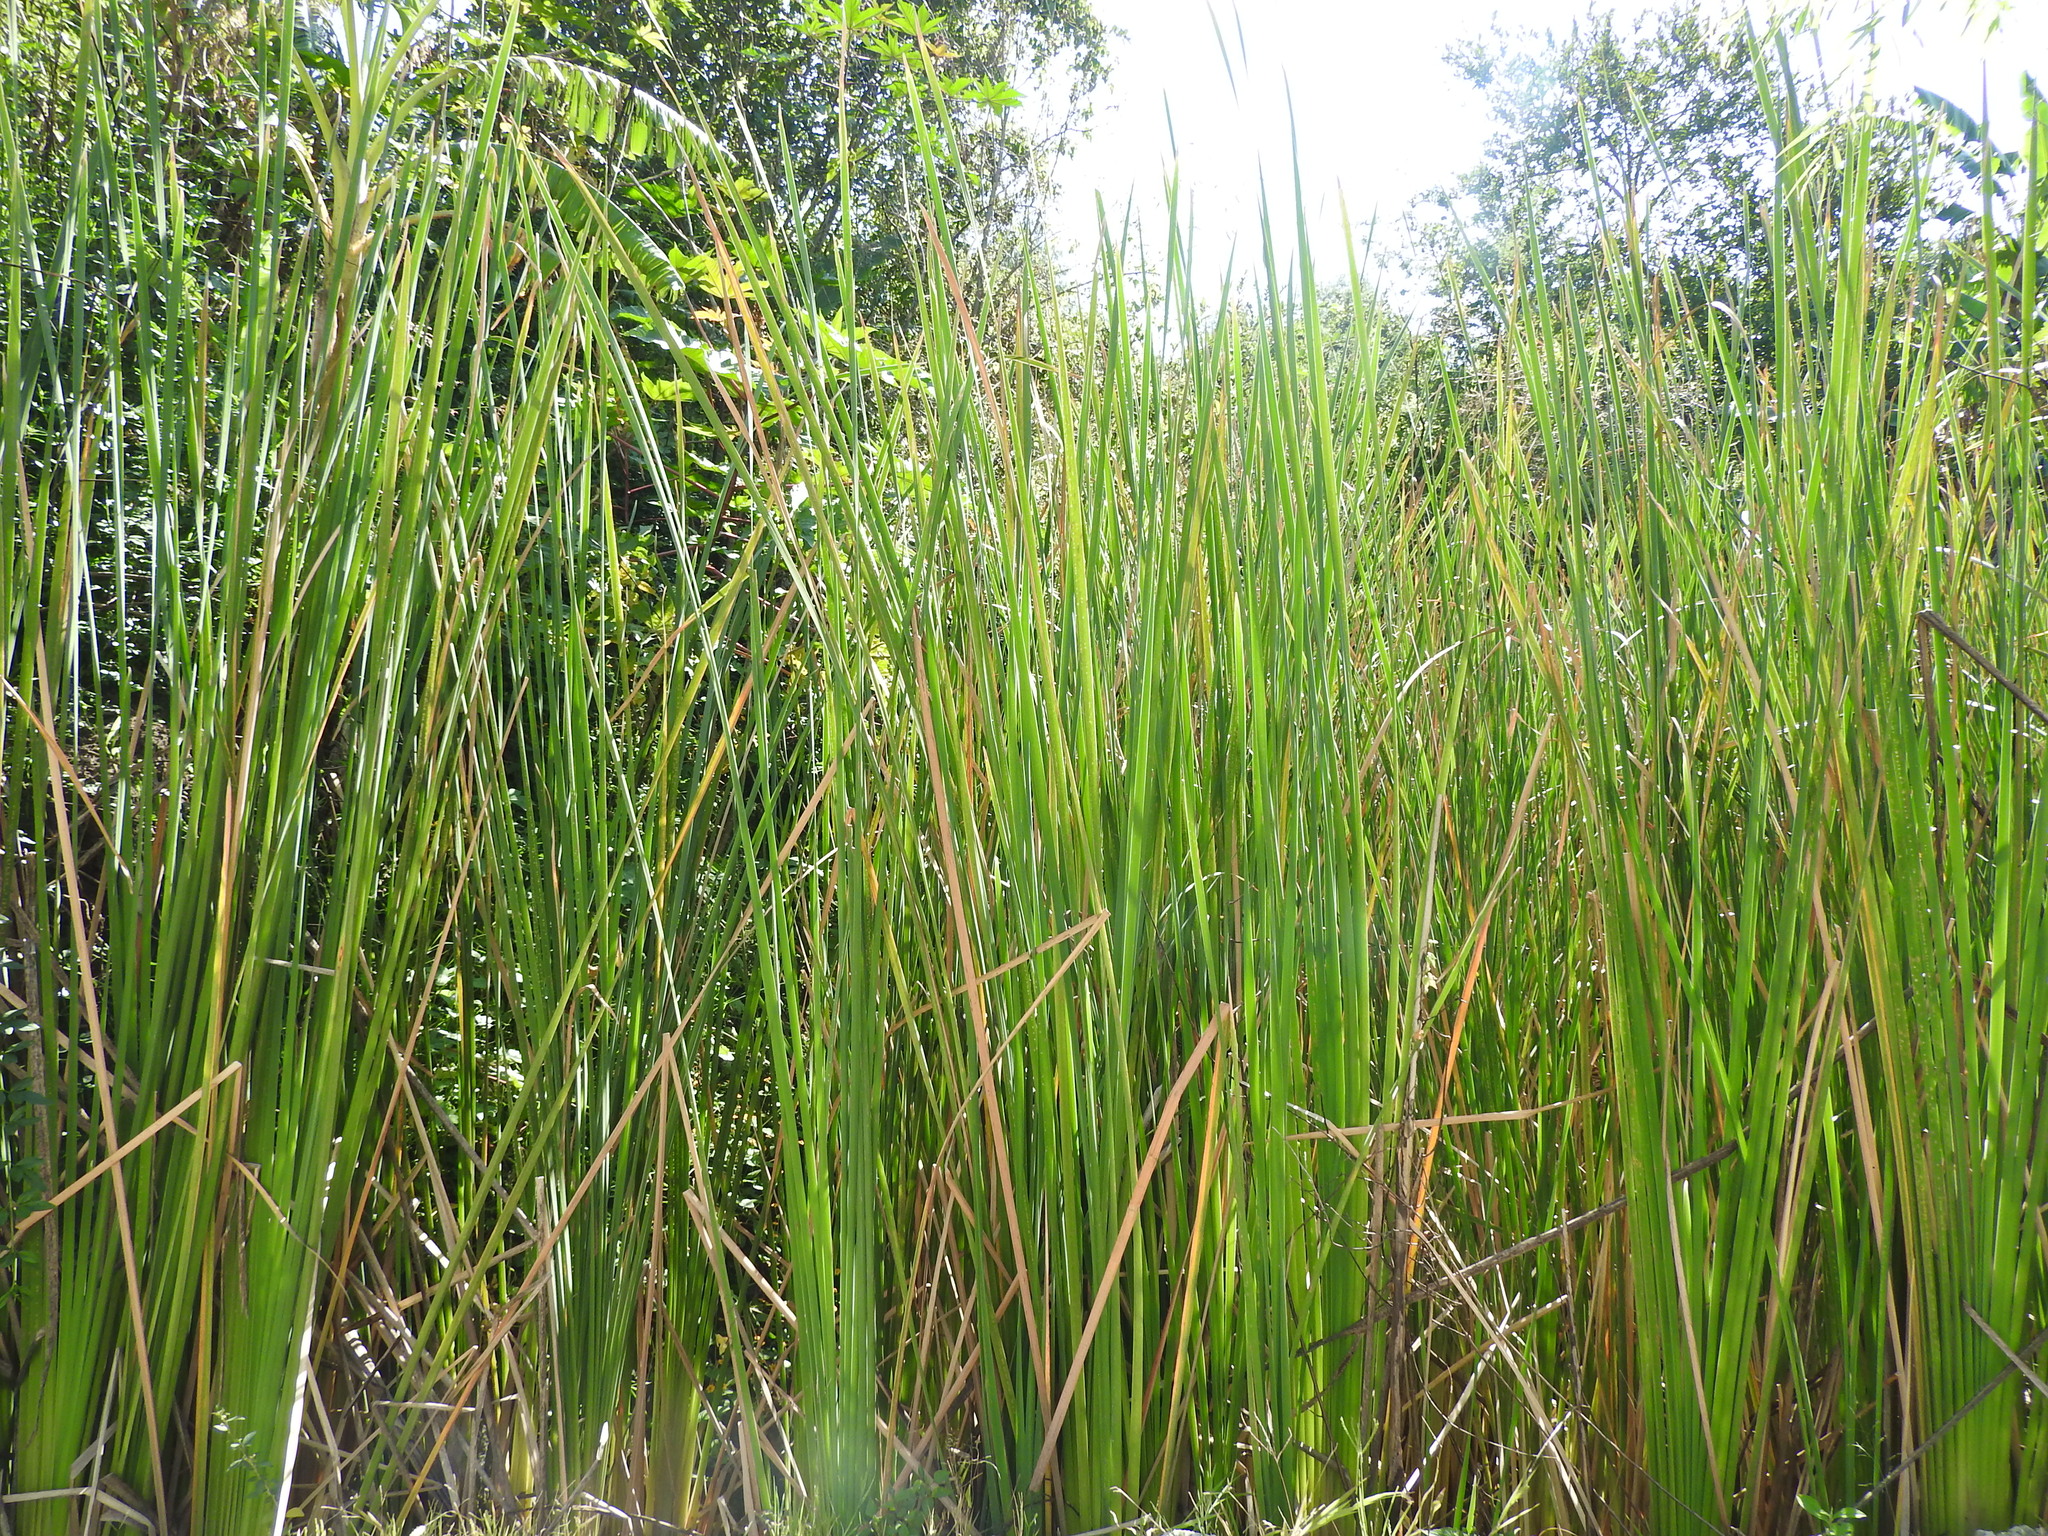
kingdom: Plantae
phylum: Tracheophyta
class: Liliopsida
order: Poales
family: Typhaceae
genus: Typha
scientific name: Typha domingensis
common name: Southern cattail
